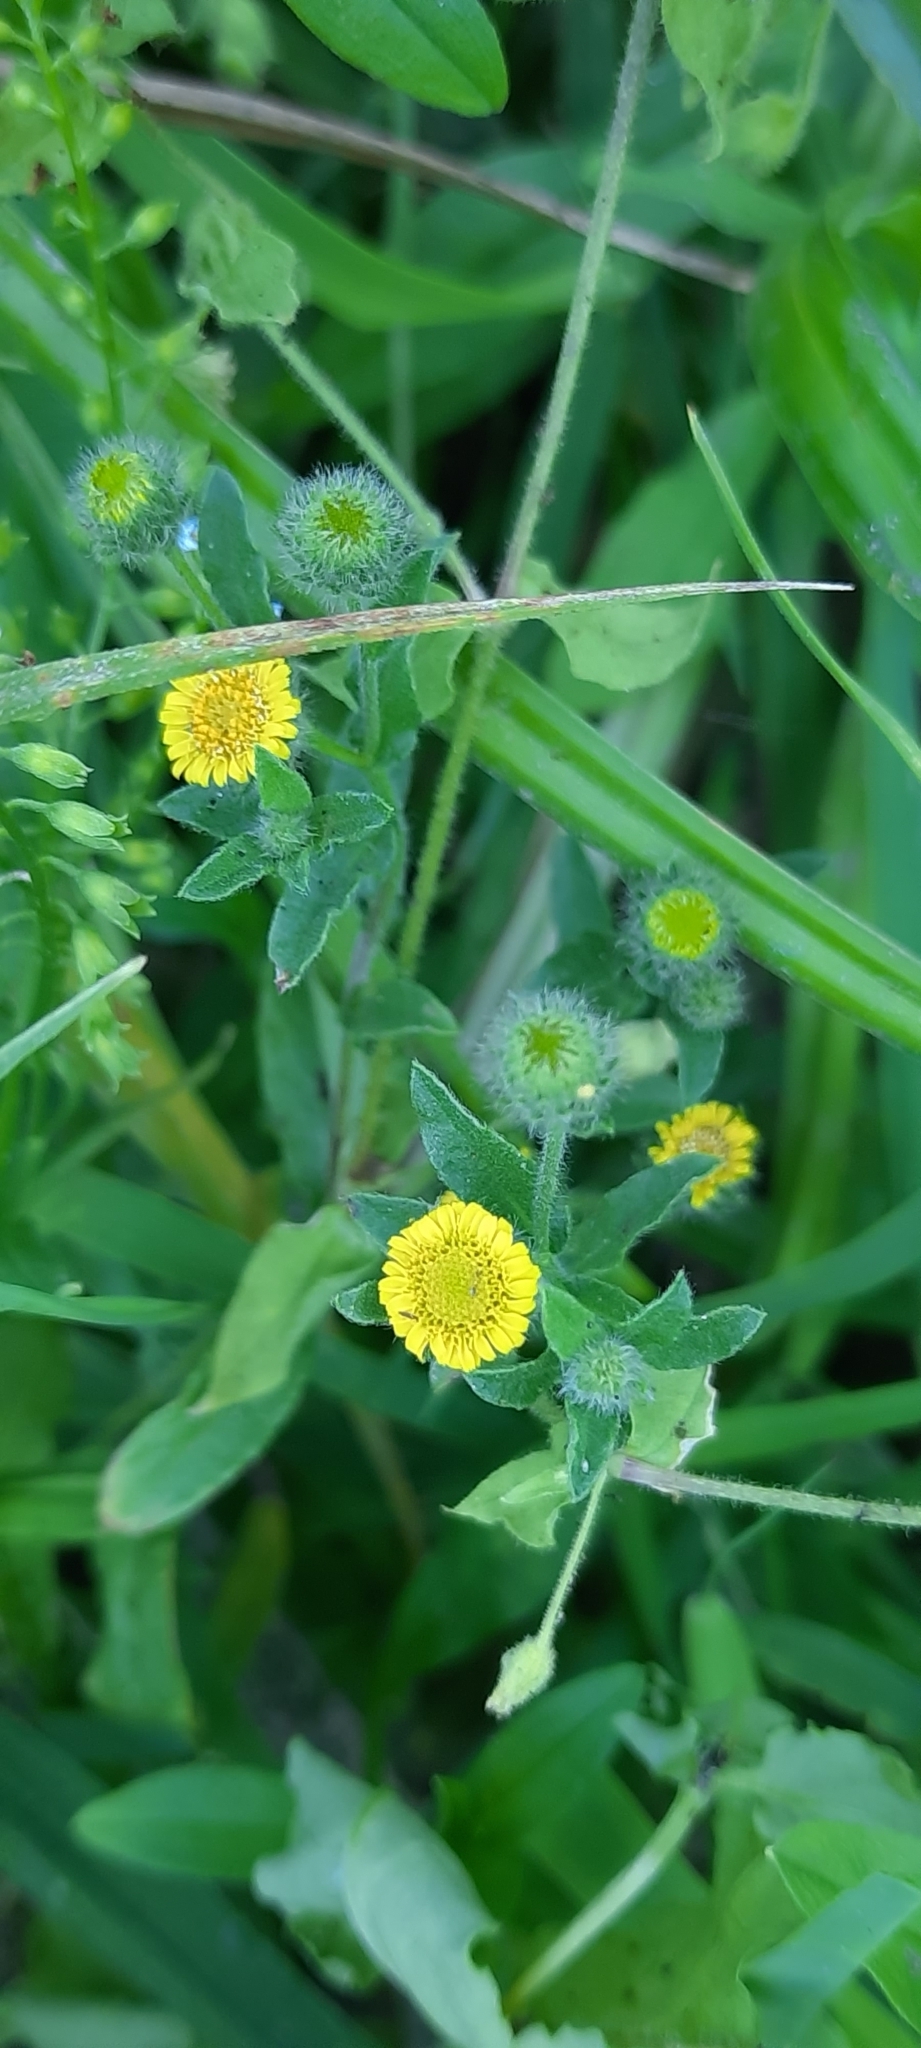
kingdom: Plantae
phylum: Tracheophyta
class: Magnoliopsida
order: Asterales
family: Asteraceae
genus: Pulicaria
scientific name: Pulicaria vulgaris
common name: Small fleabane
